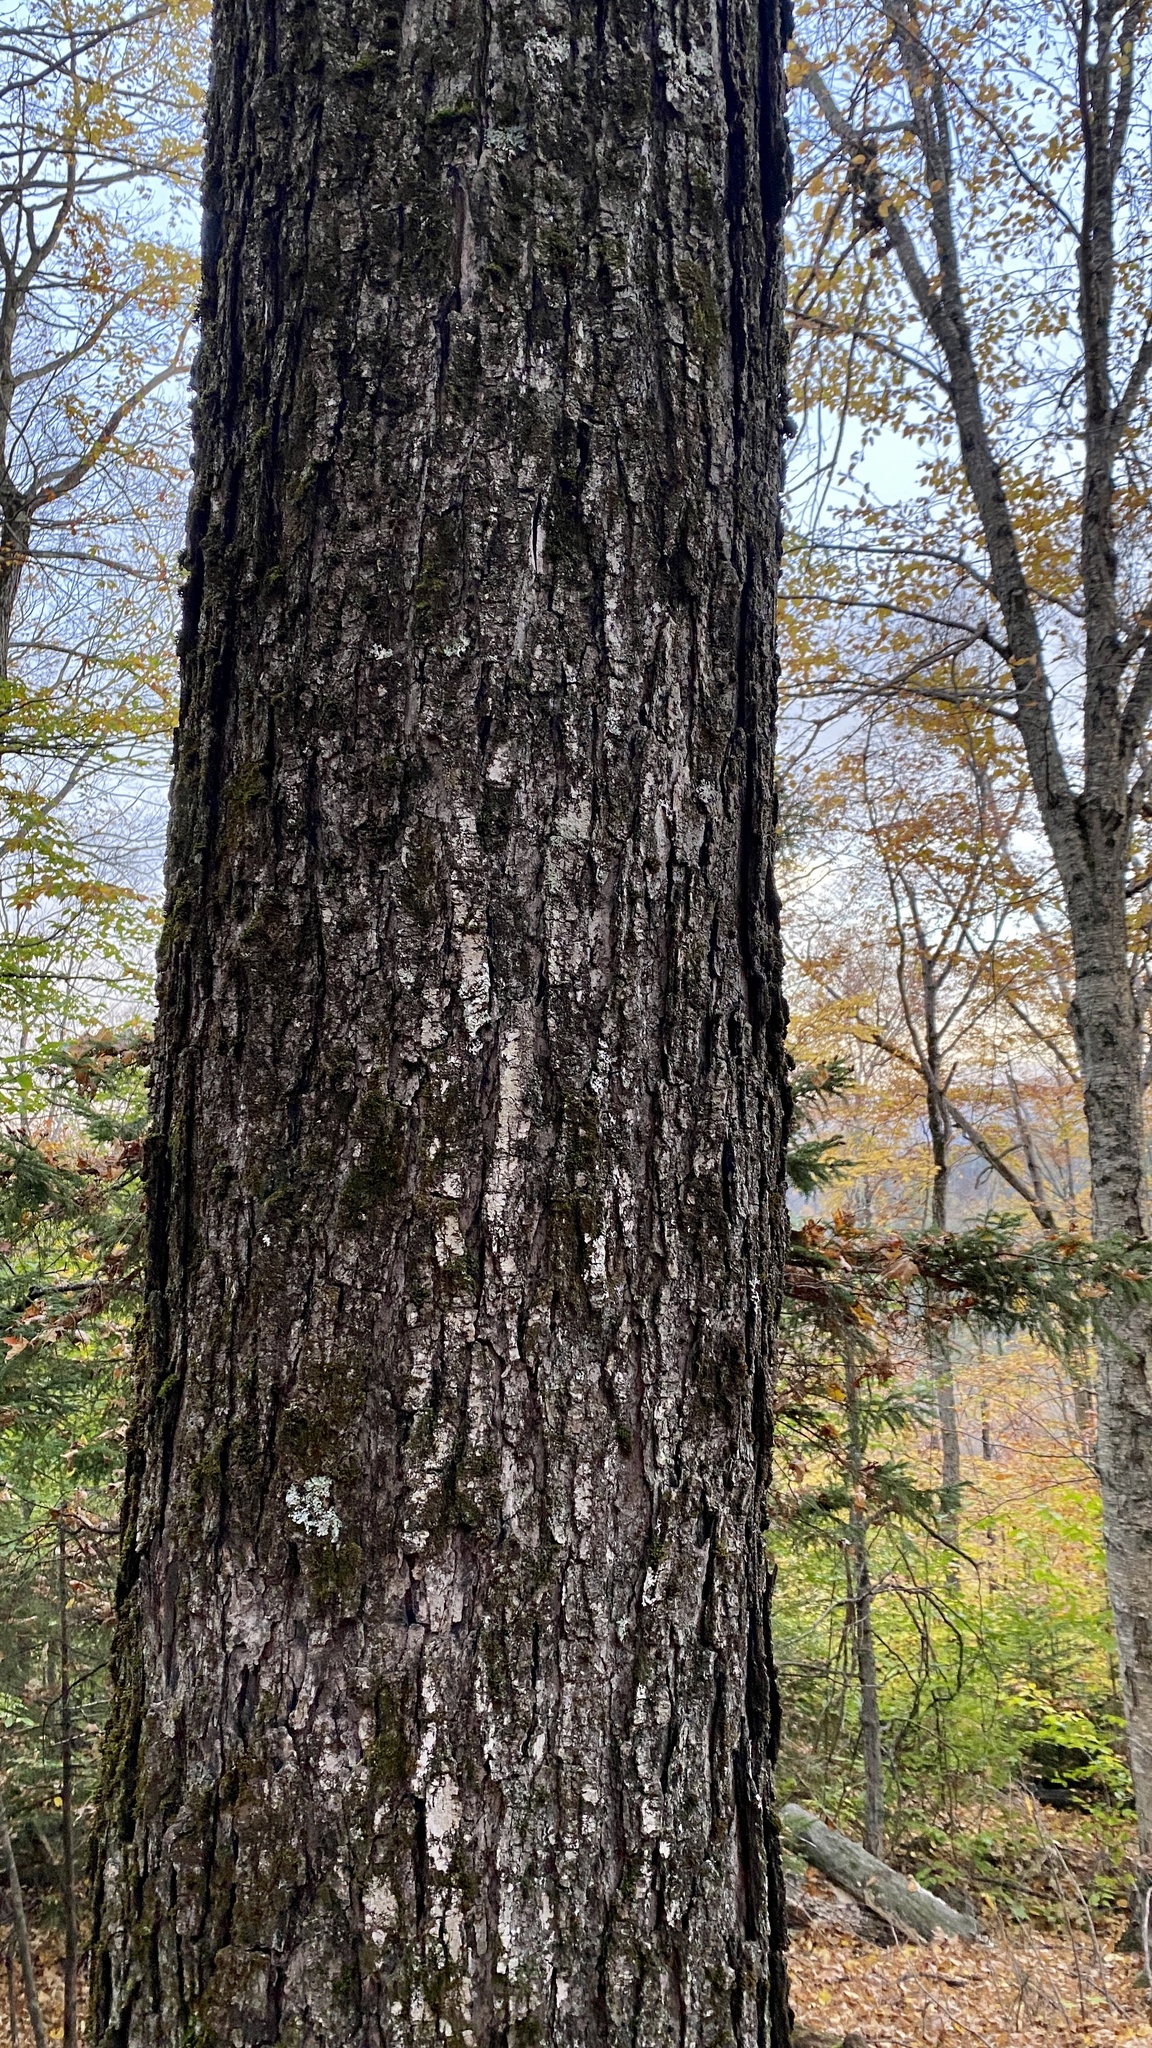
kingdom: Plantae
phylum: Tracheophyta
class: Magnoliopsida
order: Sapindales
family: Sapindaceae
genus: Acer
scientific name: Acer saccharum
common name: Sugar maple
